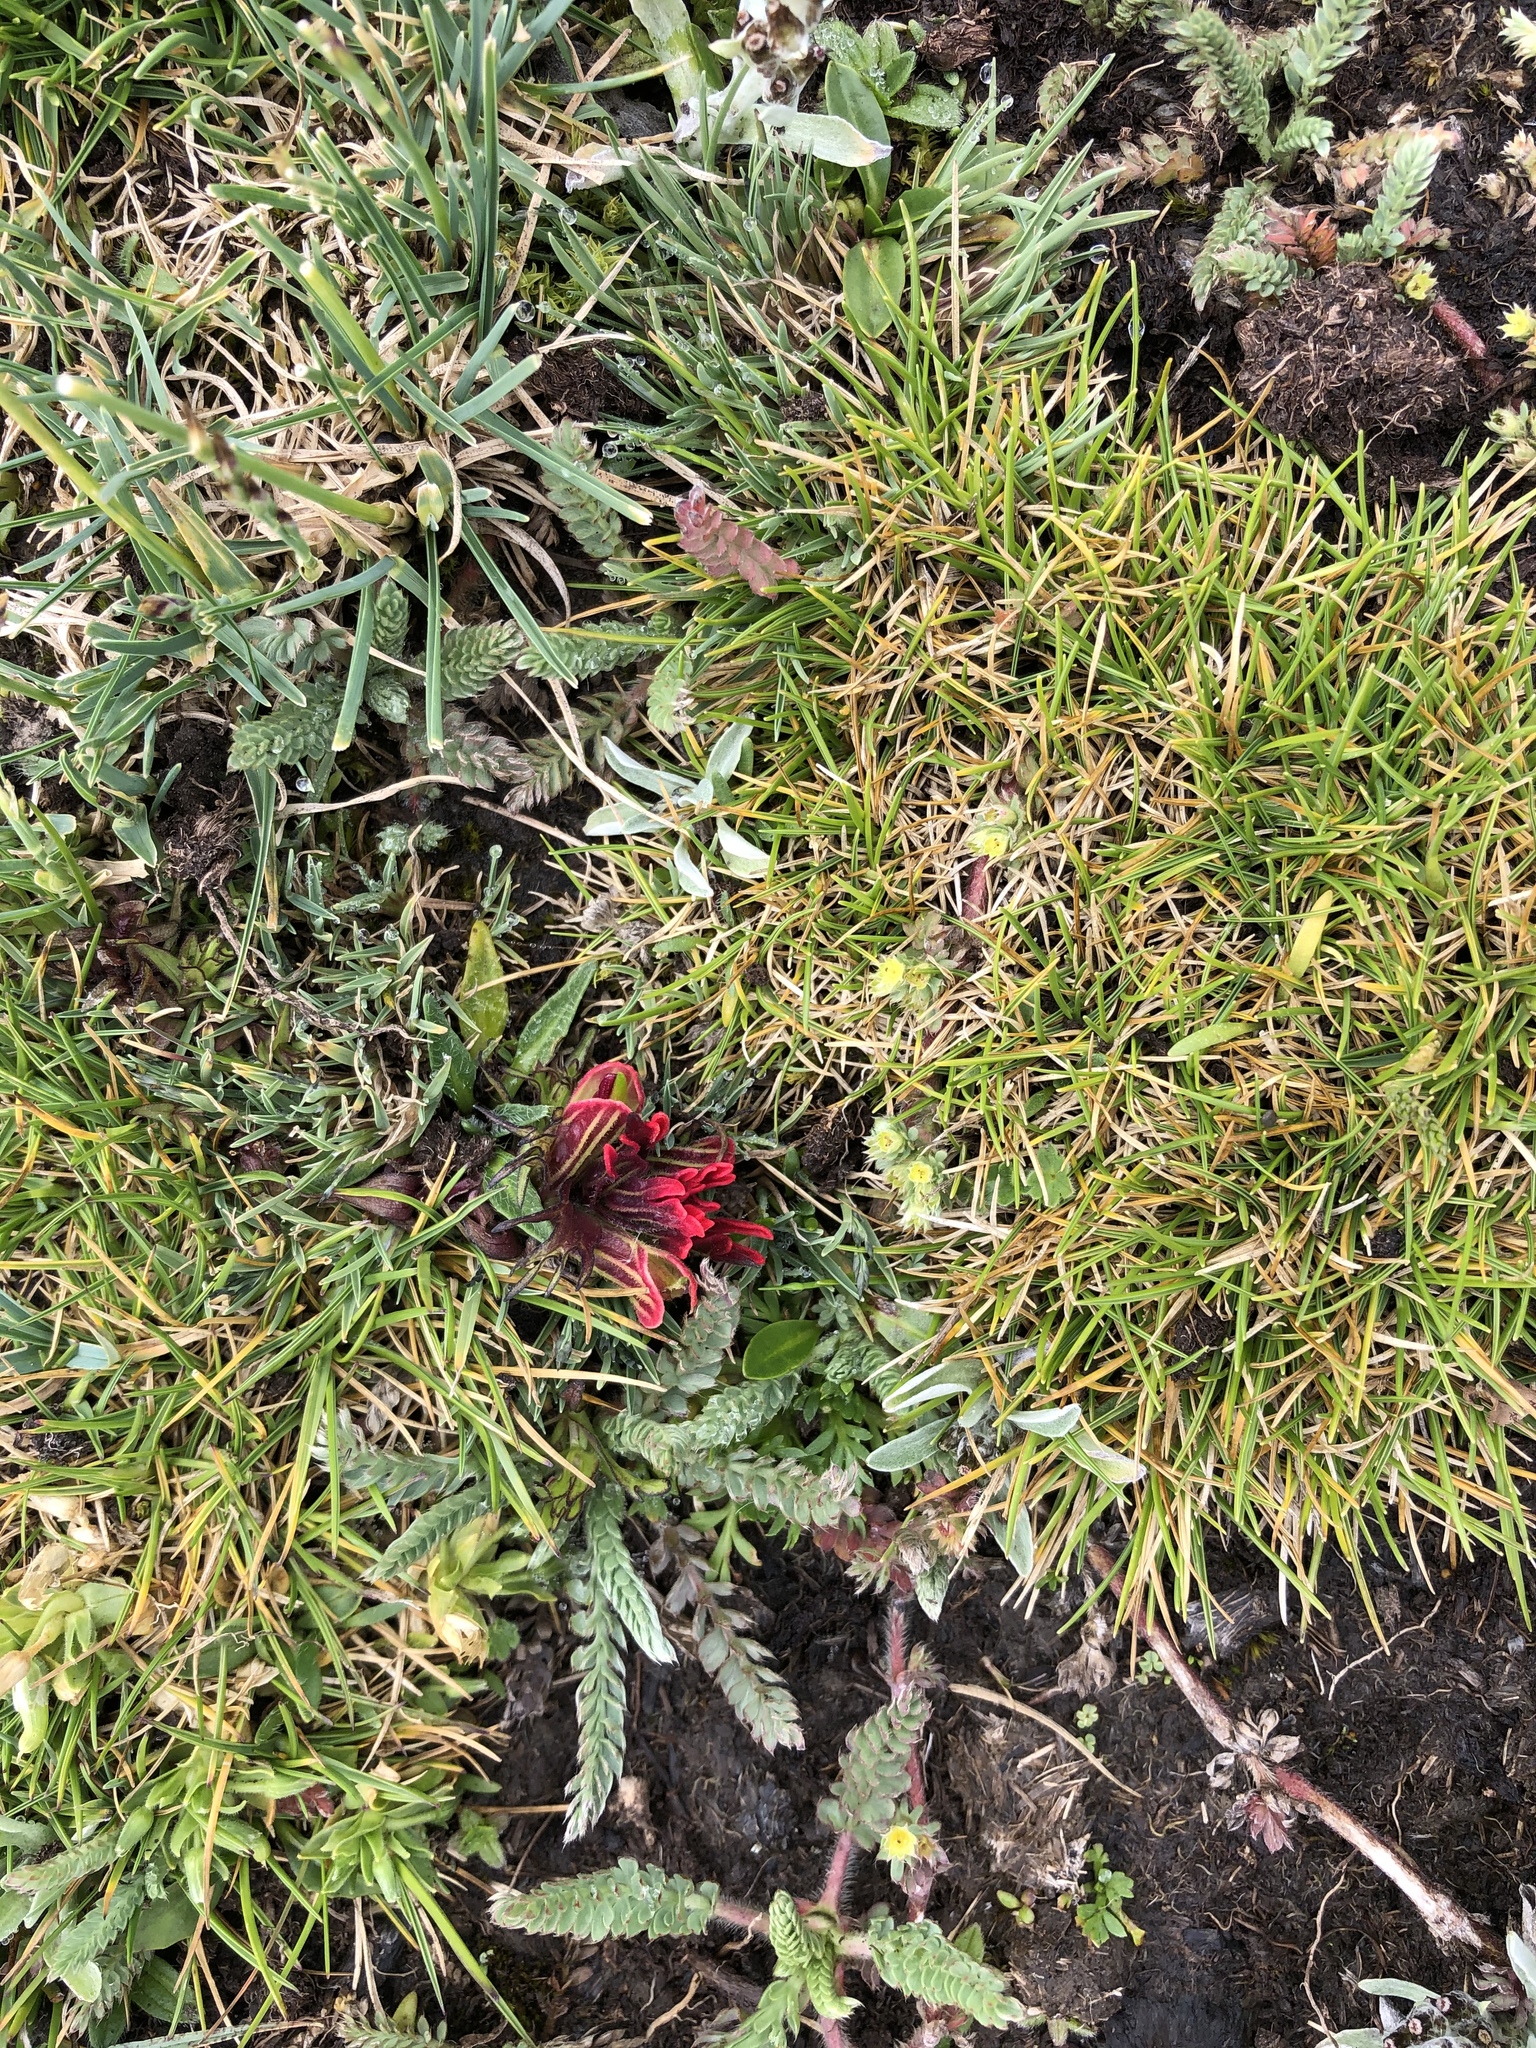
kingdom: Plantae
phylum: Tracheophyta
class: Magnoliopsida
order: Lamiales
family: Orobanchaceae
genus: Castilleja
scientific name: Castilleja pumila
